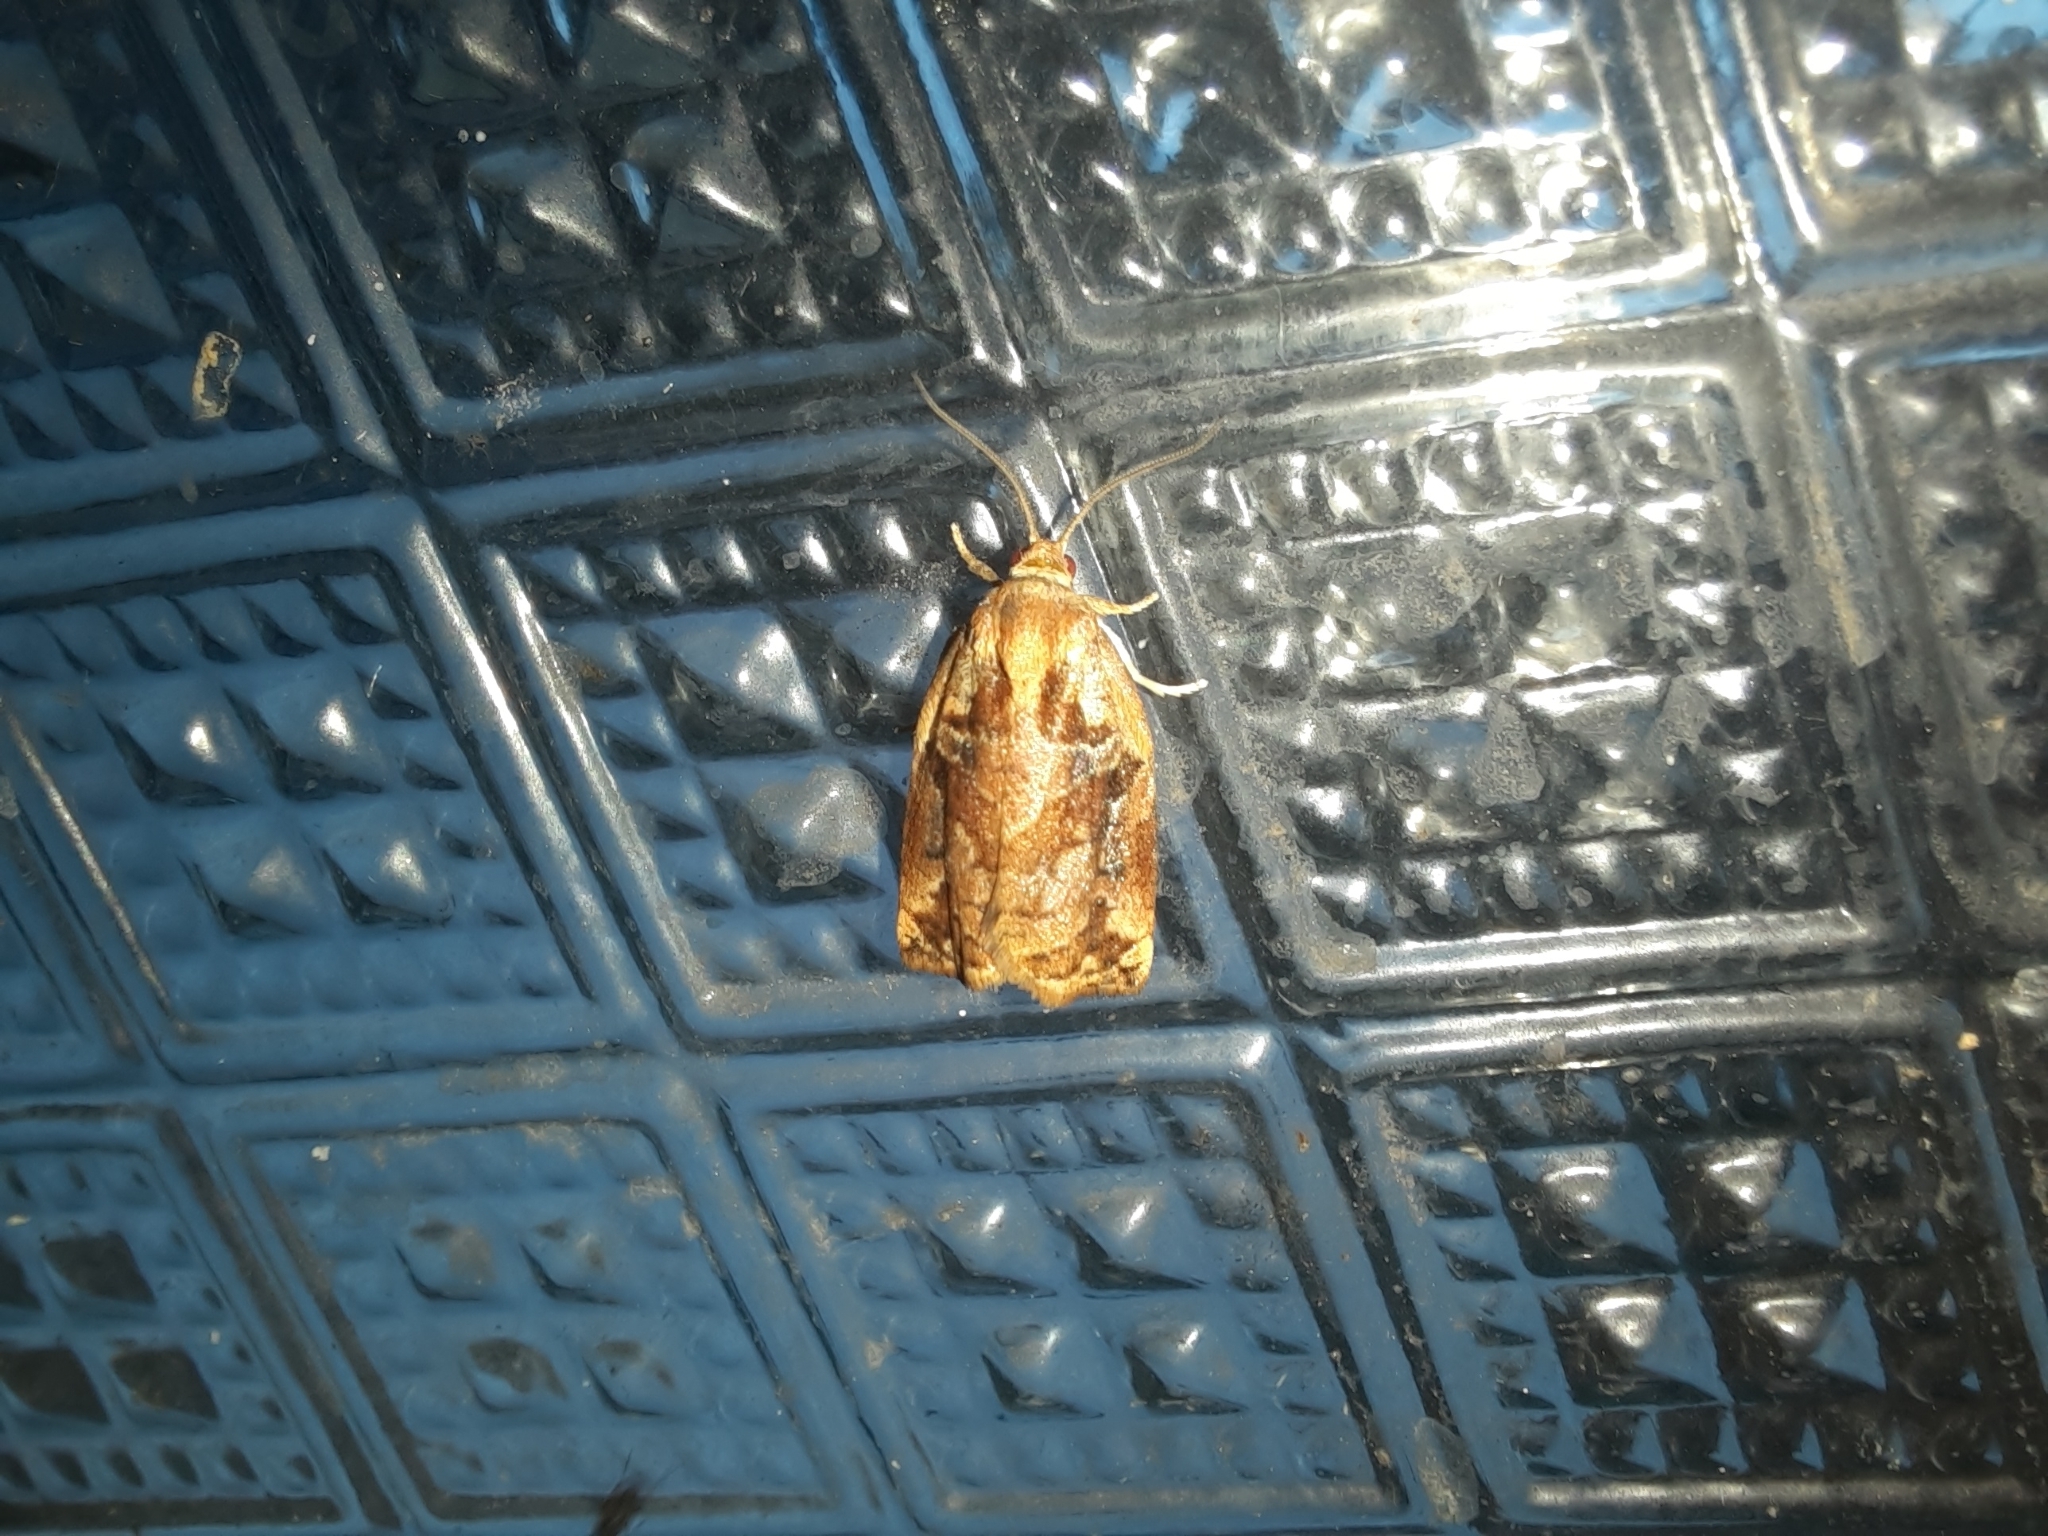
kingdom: Animalia
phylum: Arthropoda
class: Insecta
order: Lepidoptera
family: Tortricidae
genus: Archips
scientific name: Archips oporana
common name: Sprice tortrix moth
